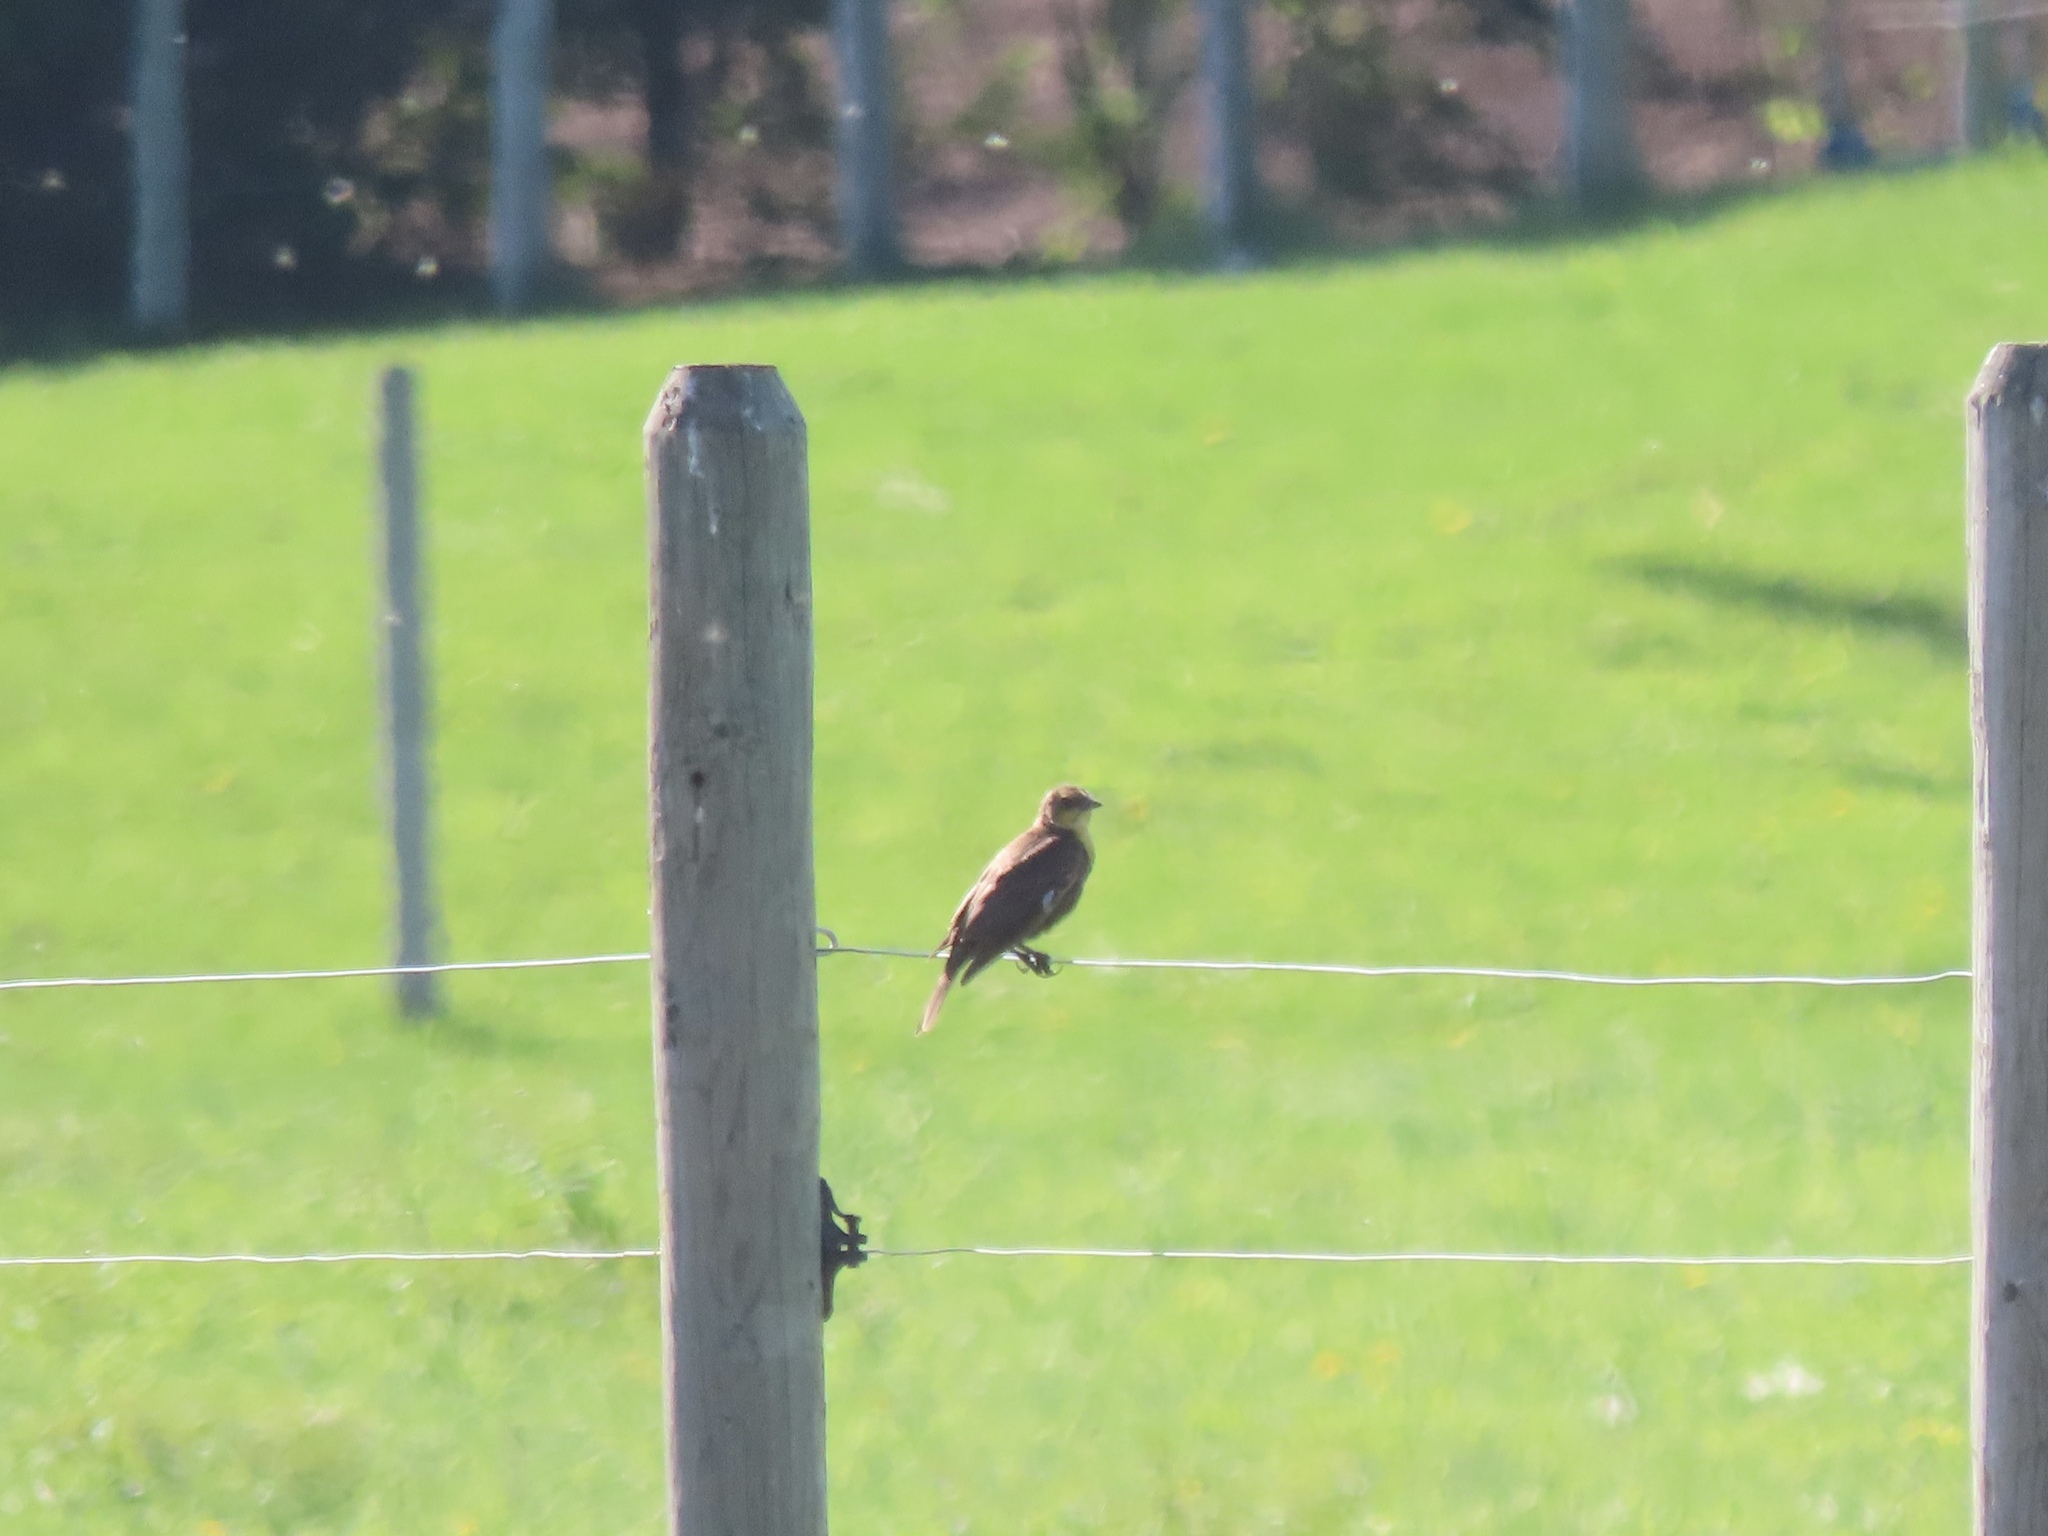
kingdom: Animalia
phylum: Chordata
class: Aves
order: Passeriformes
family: Icteridae
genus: Xanthocephalus
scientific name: Xanthocephalus xanthocephalus
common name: Yellow-headed blackbird
